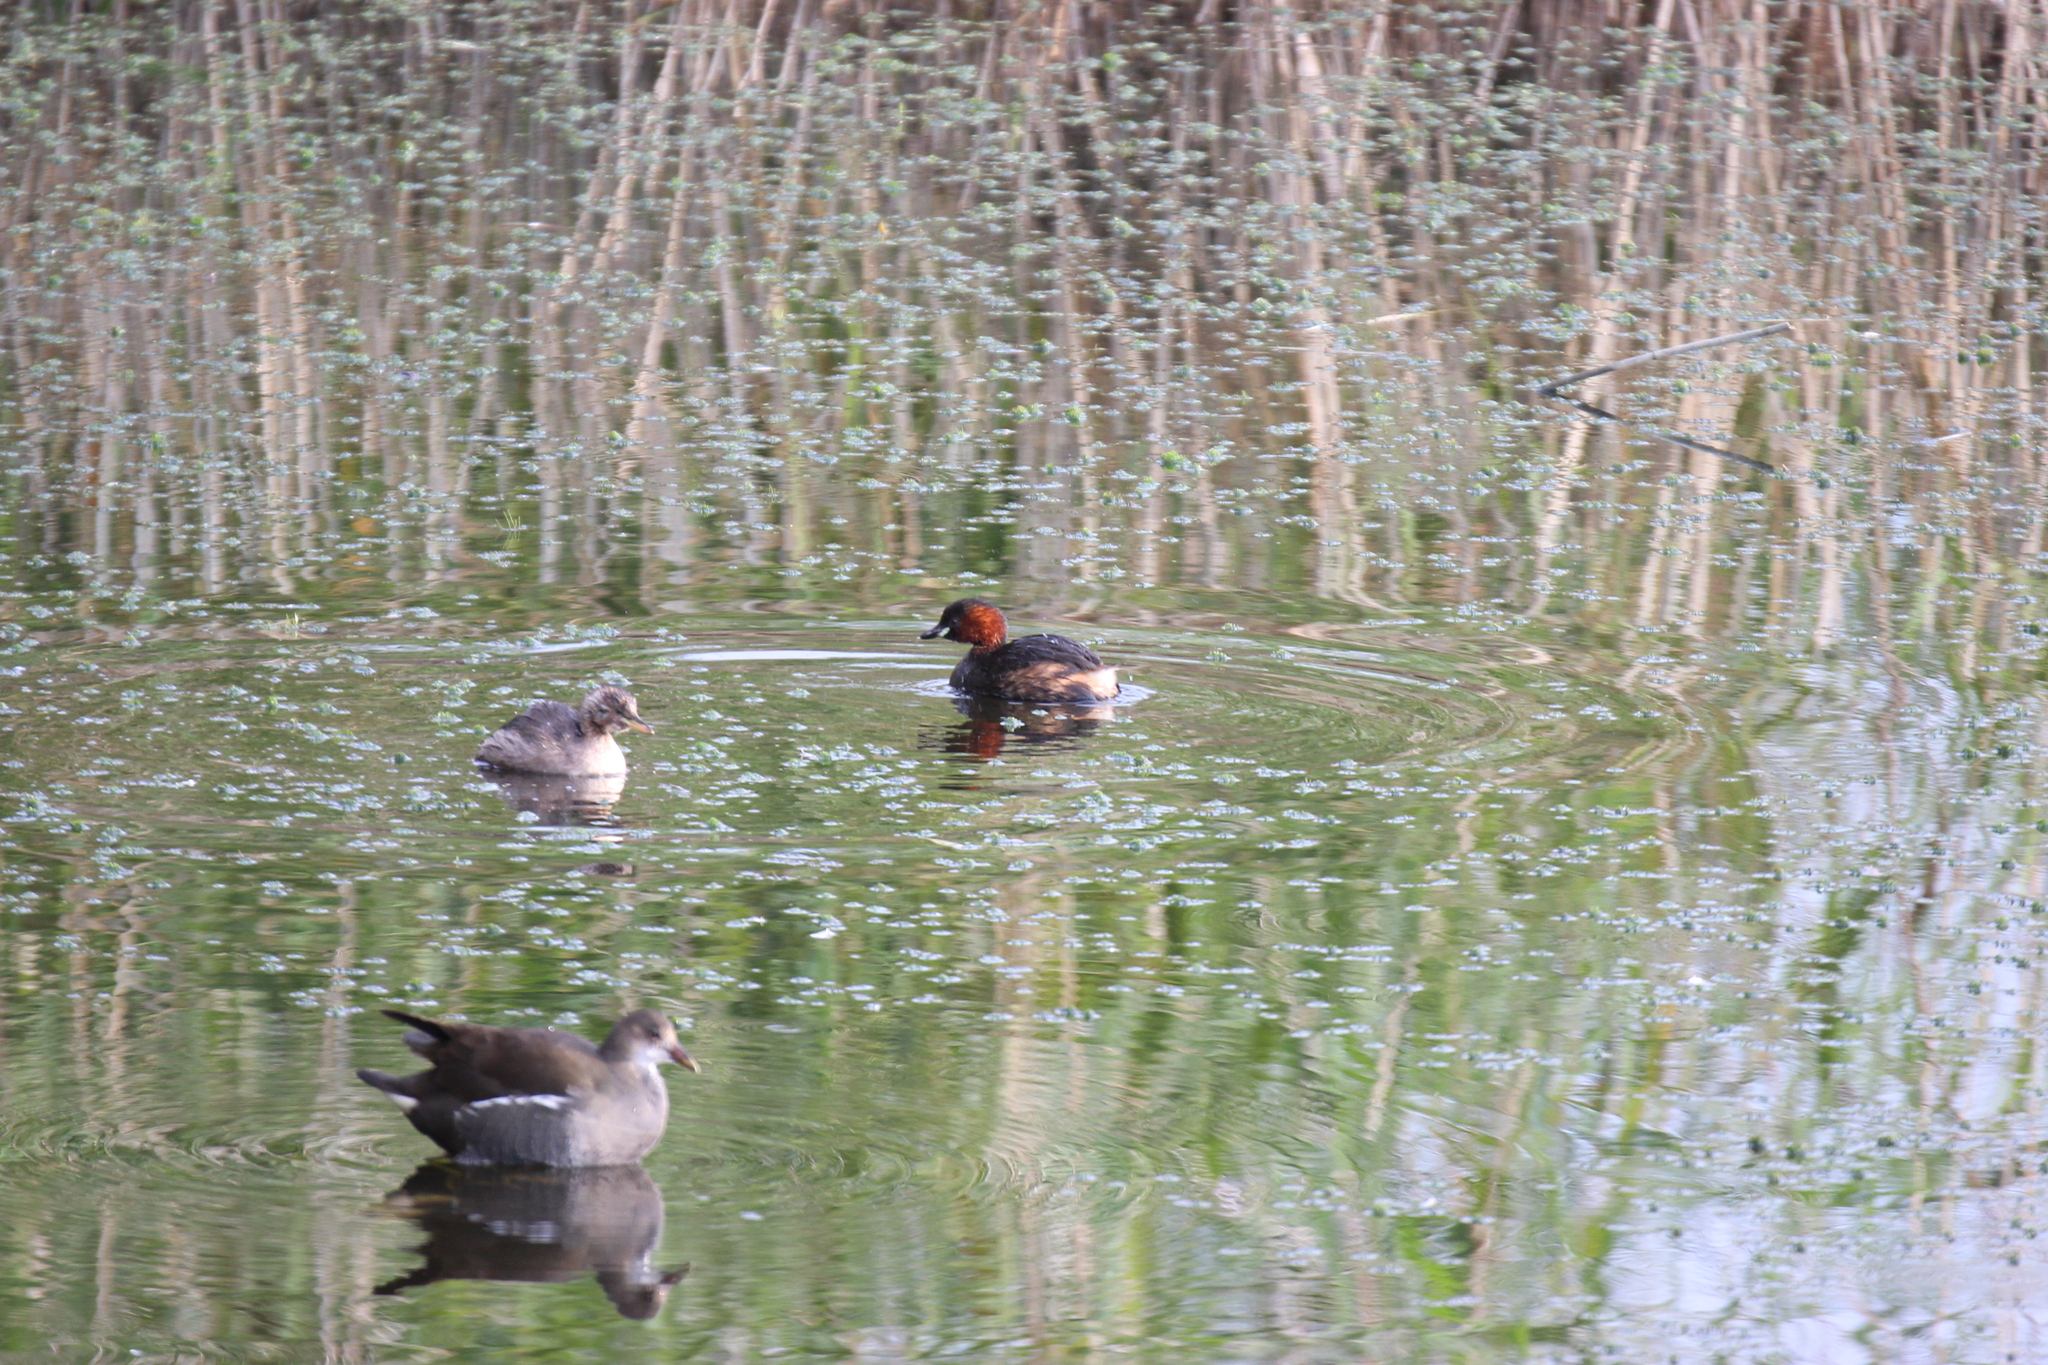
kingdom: Animalia
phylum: Chordata
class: Aves
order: Podicipediformes
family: Podicipedidae
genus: Tachybaptus
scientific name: Tachybaptus ruficollis
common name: Little grebe
